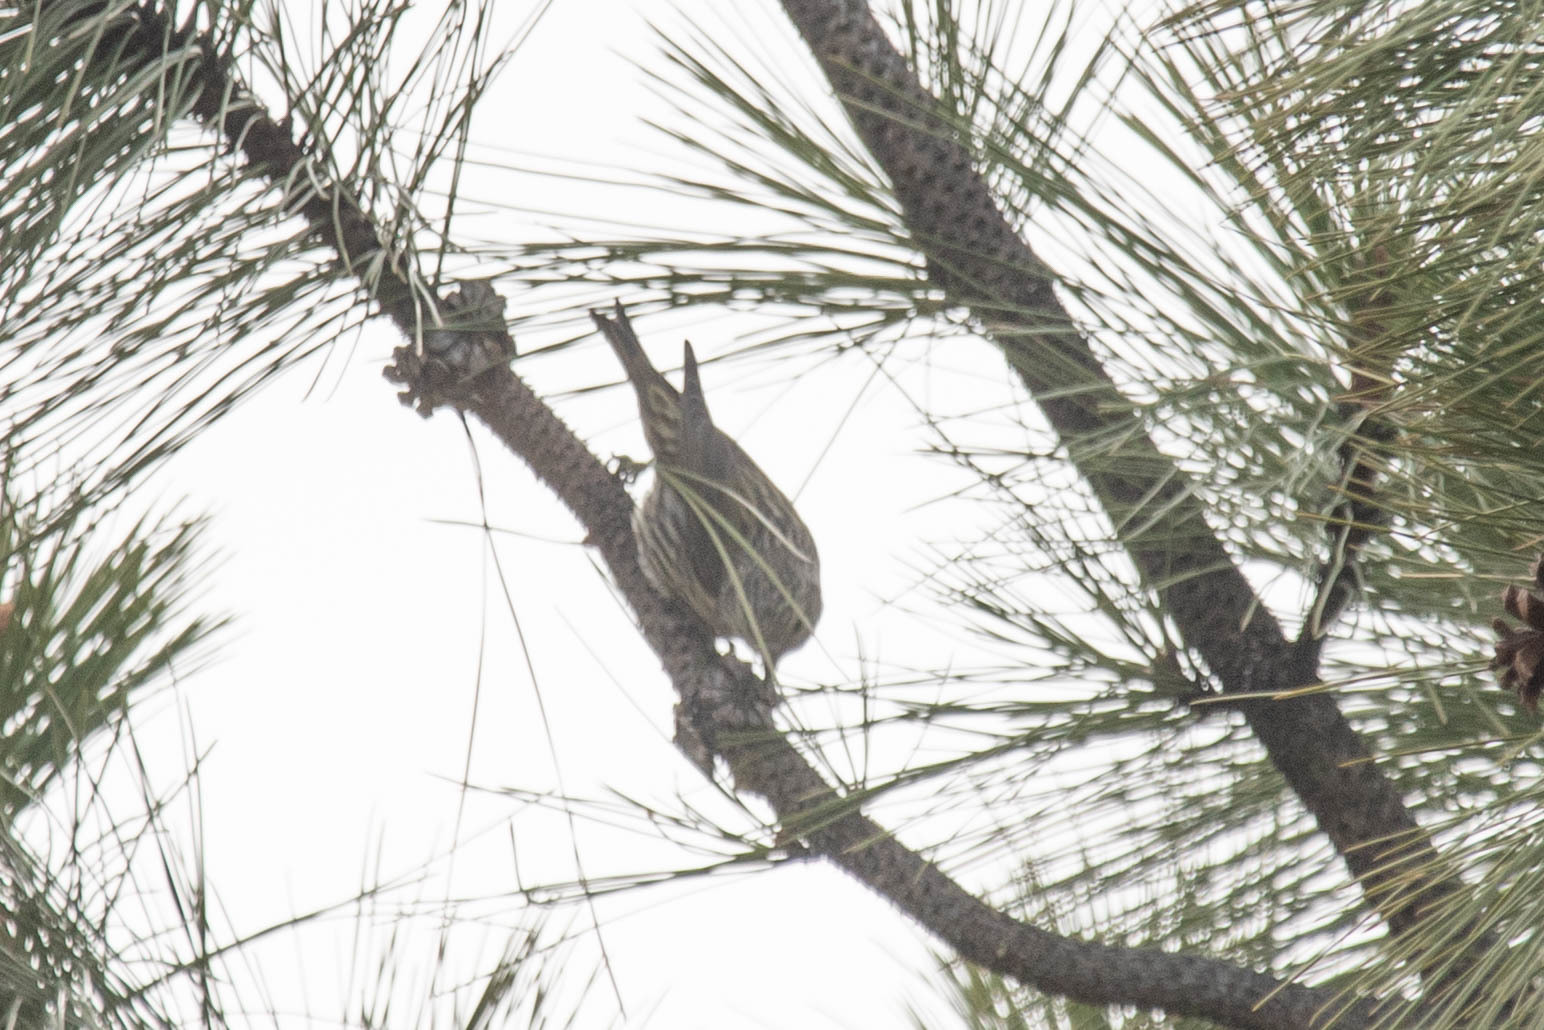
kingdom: Animalia
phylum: Chordata
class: Aves
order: Passeriformes
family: Fringillidae
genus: Spinus
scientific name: Spinus pinus
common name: Pine siskin
